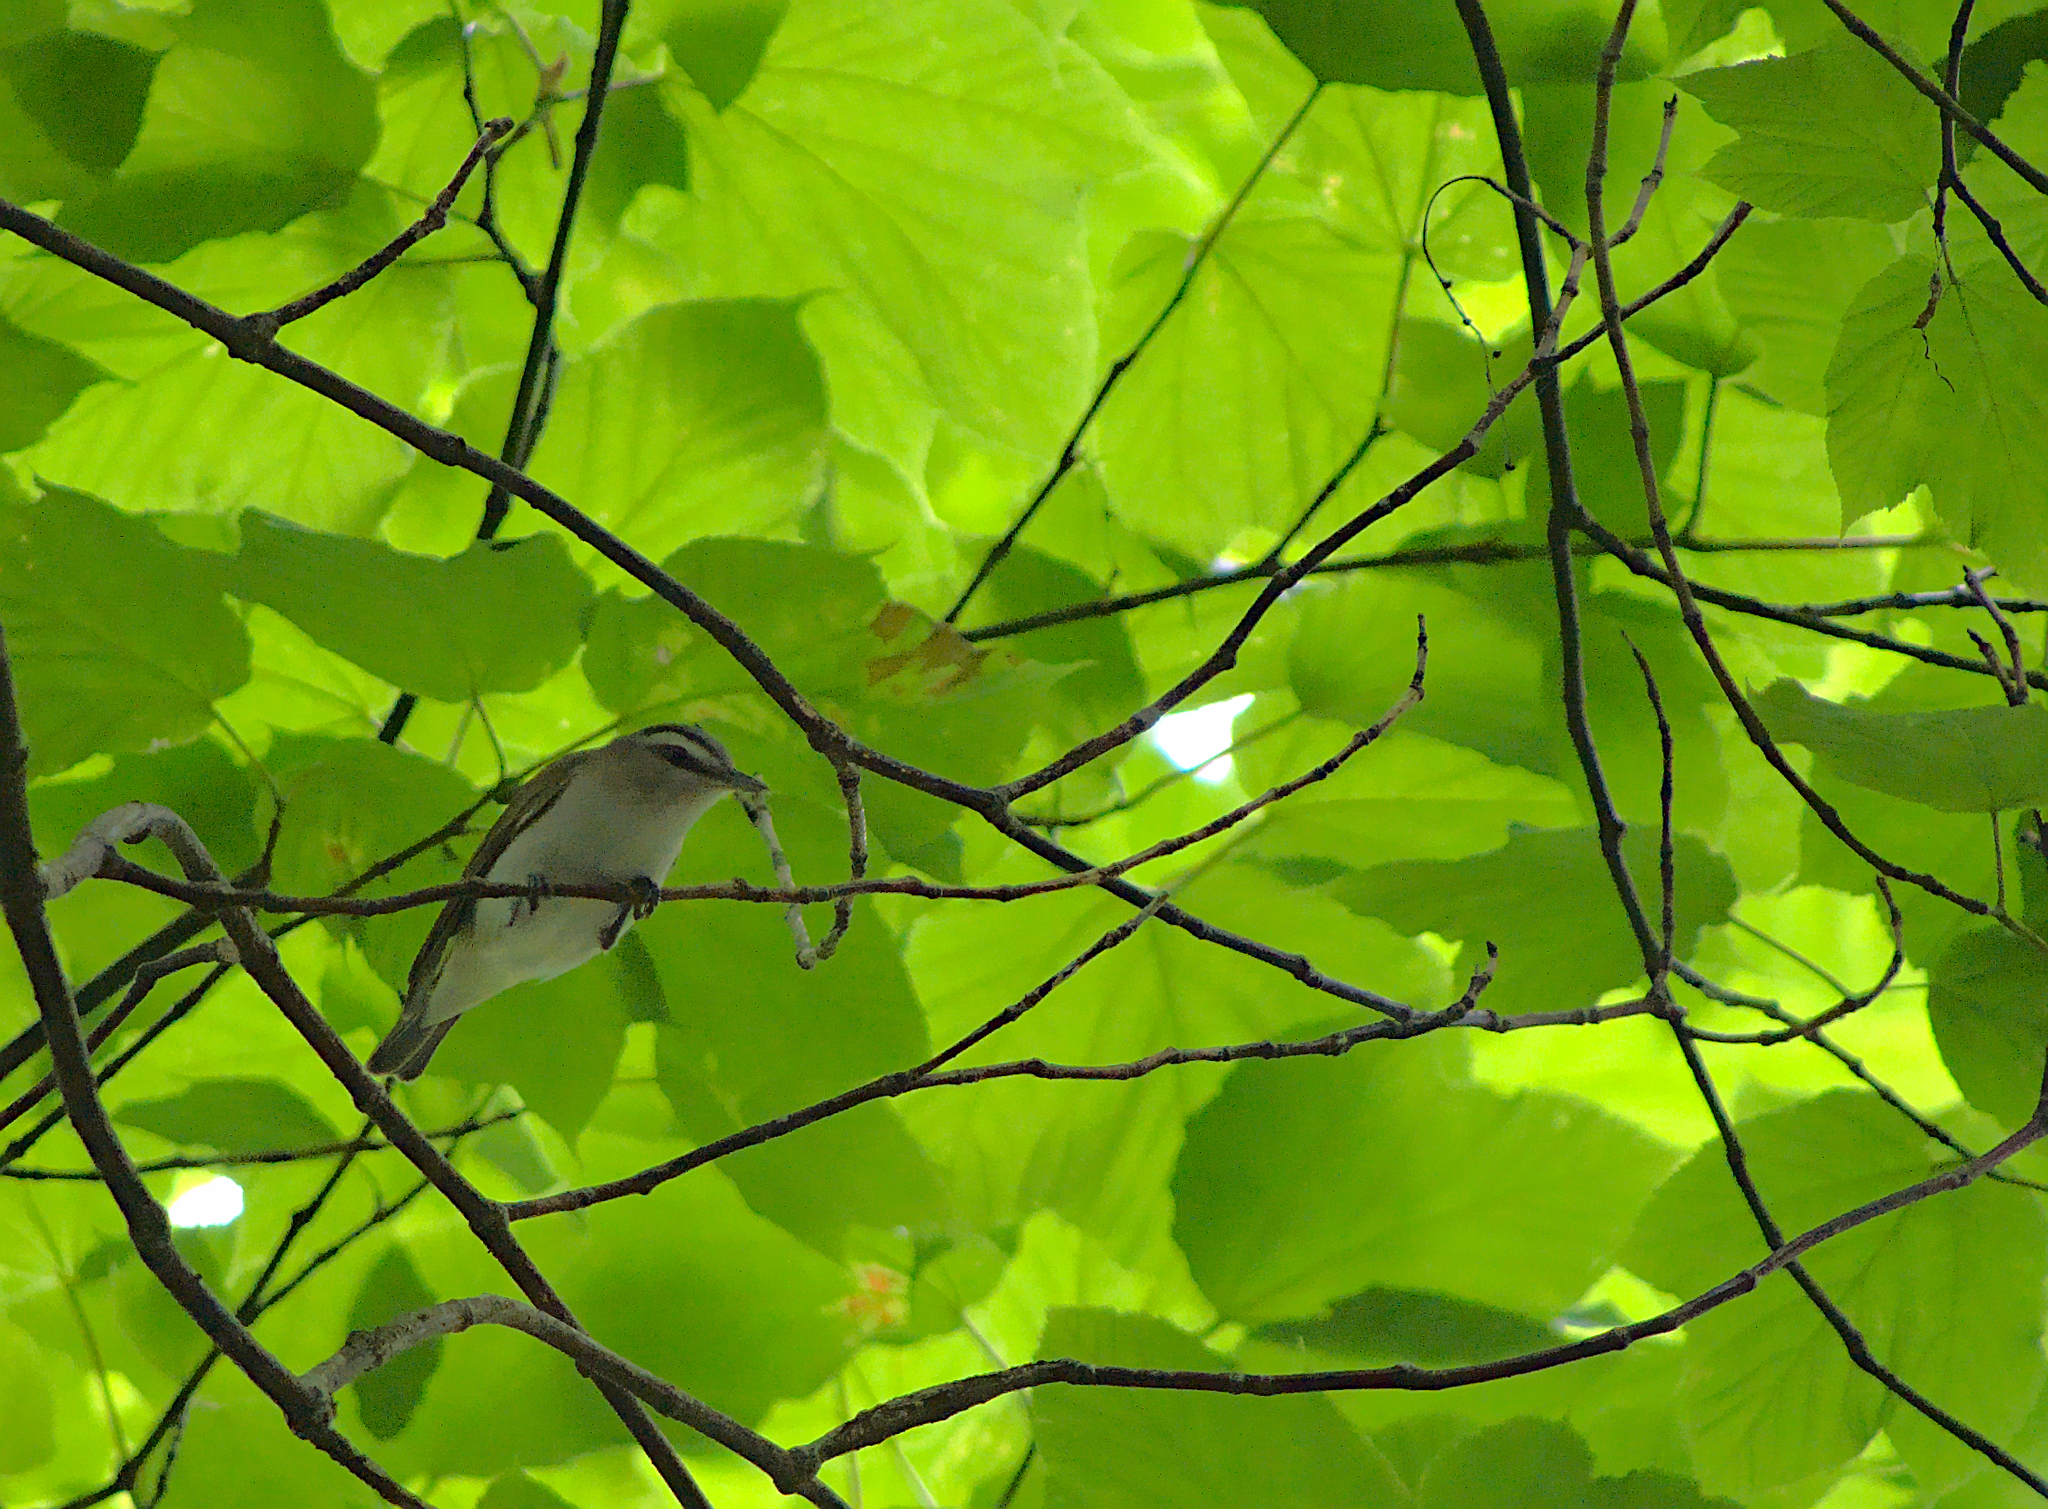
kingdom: Animalia
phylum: Chordata
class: Aves
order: Passeriformes
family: Vireonidae
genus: Vireo
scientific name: Vireo olivaceus
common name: Red-eyed vireo
